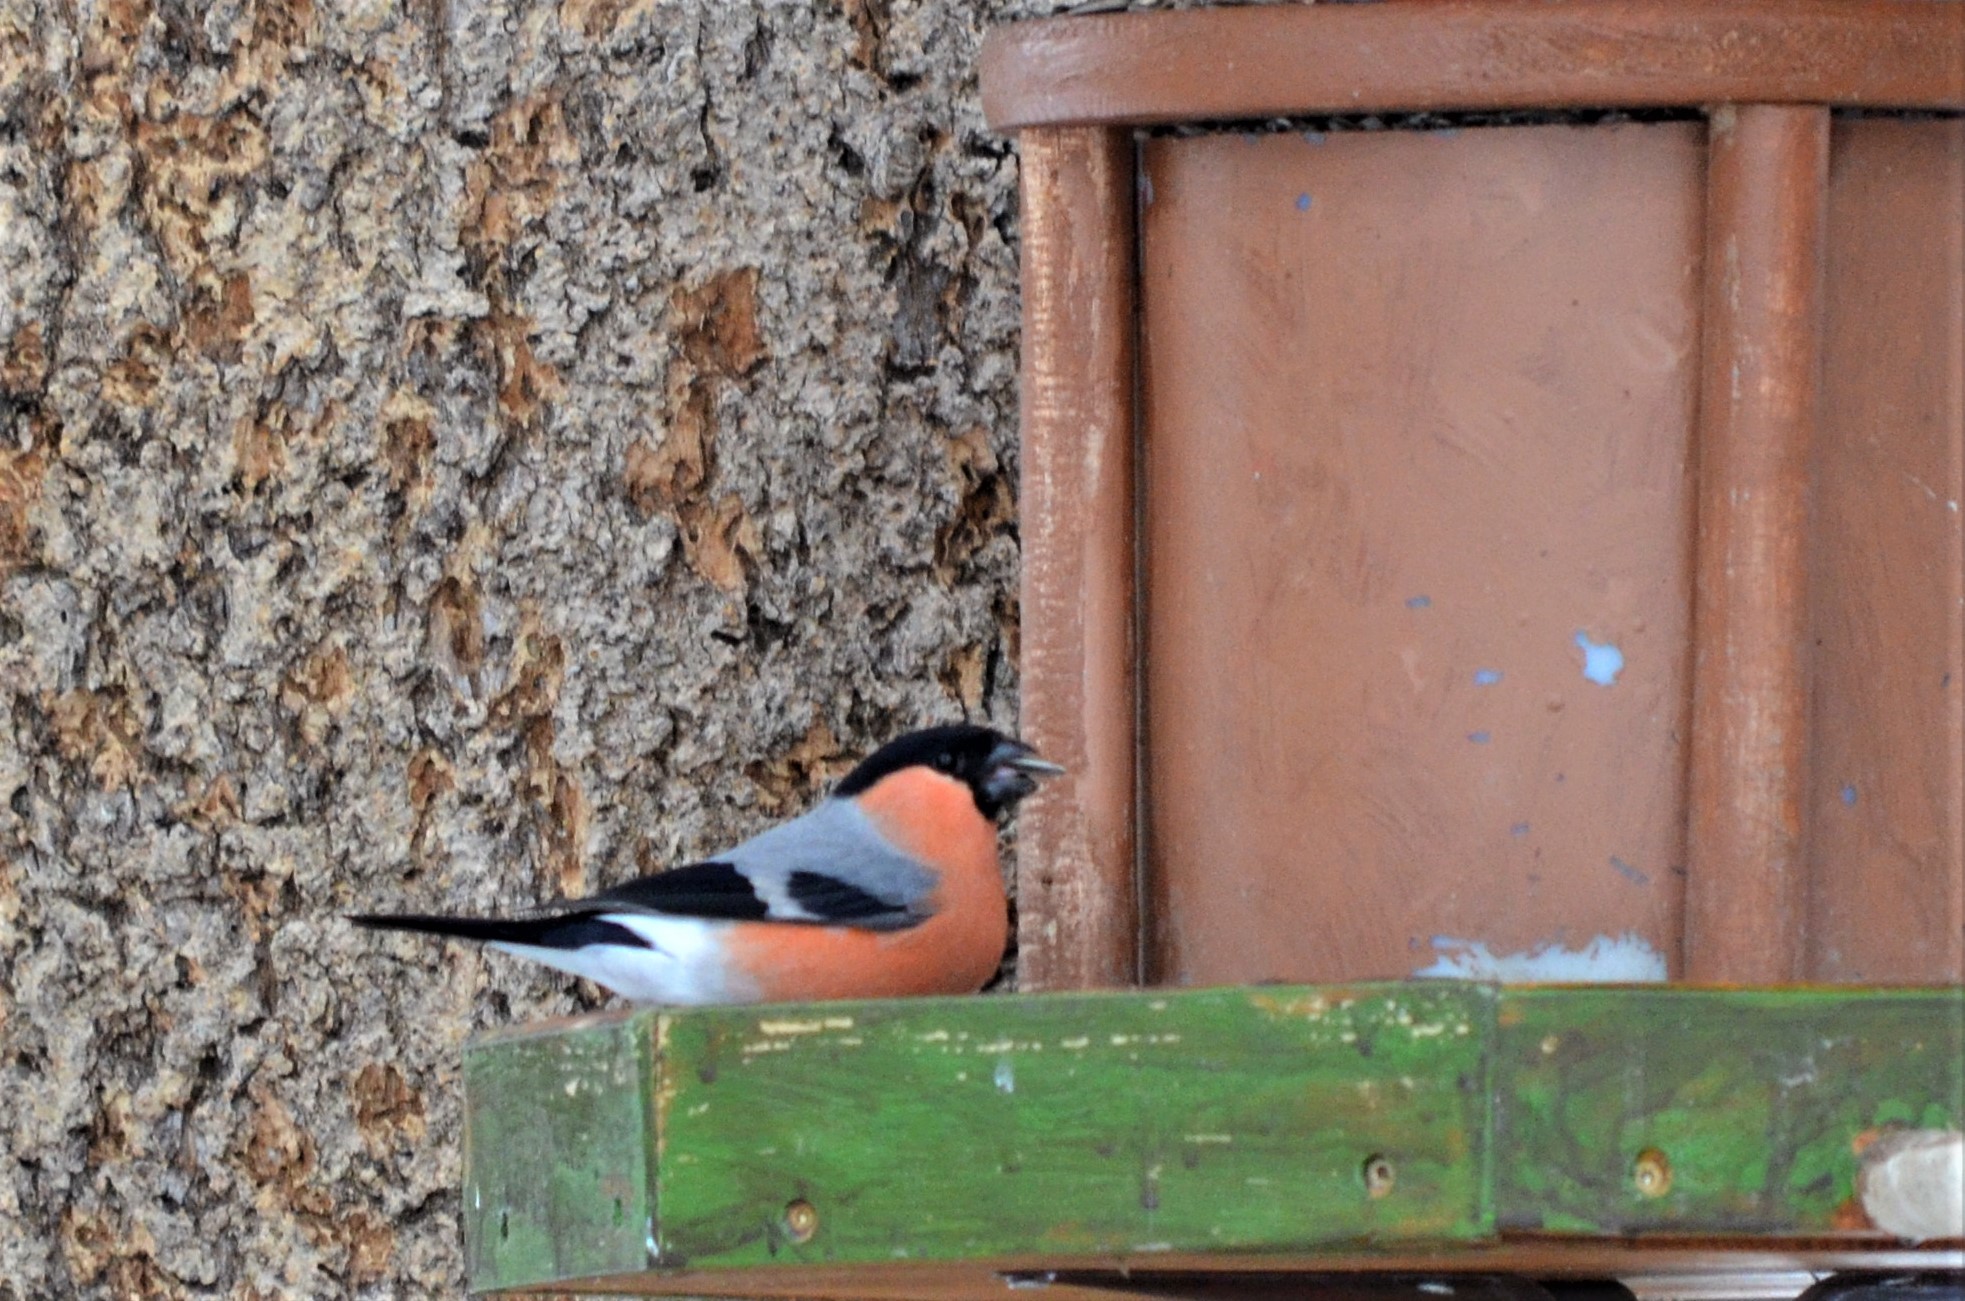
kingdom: Animalia
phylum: Chordata
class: Aves
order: Passeriformes
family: Fringillidae
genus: Pyrrhula
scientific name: Pyrrhula pyrrhula
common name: Eurasian bullfinch
